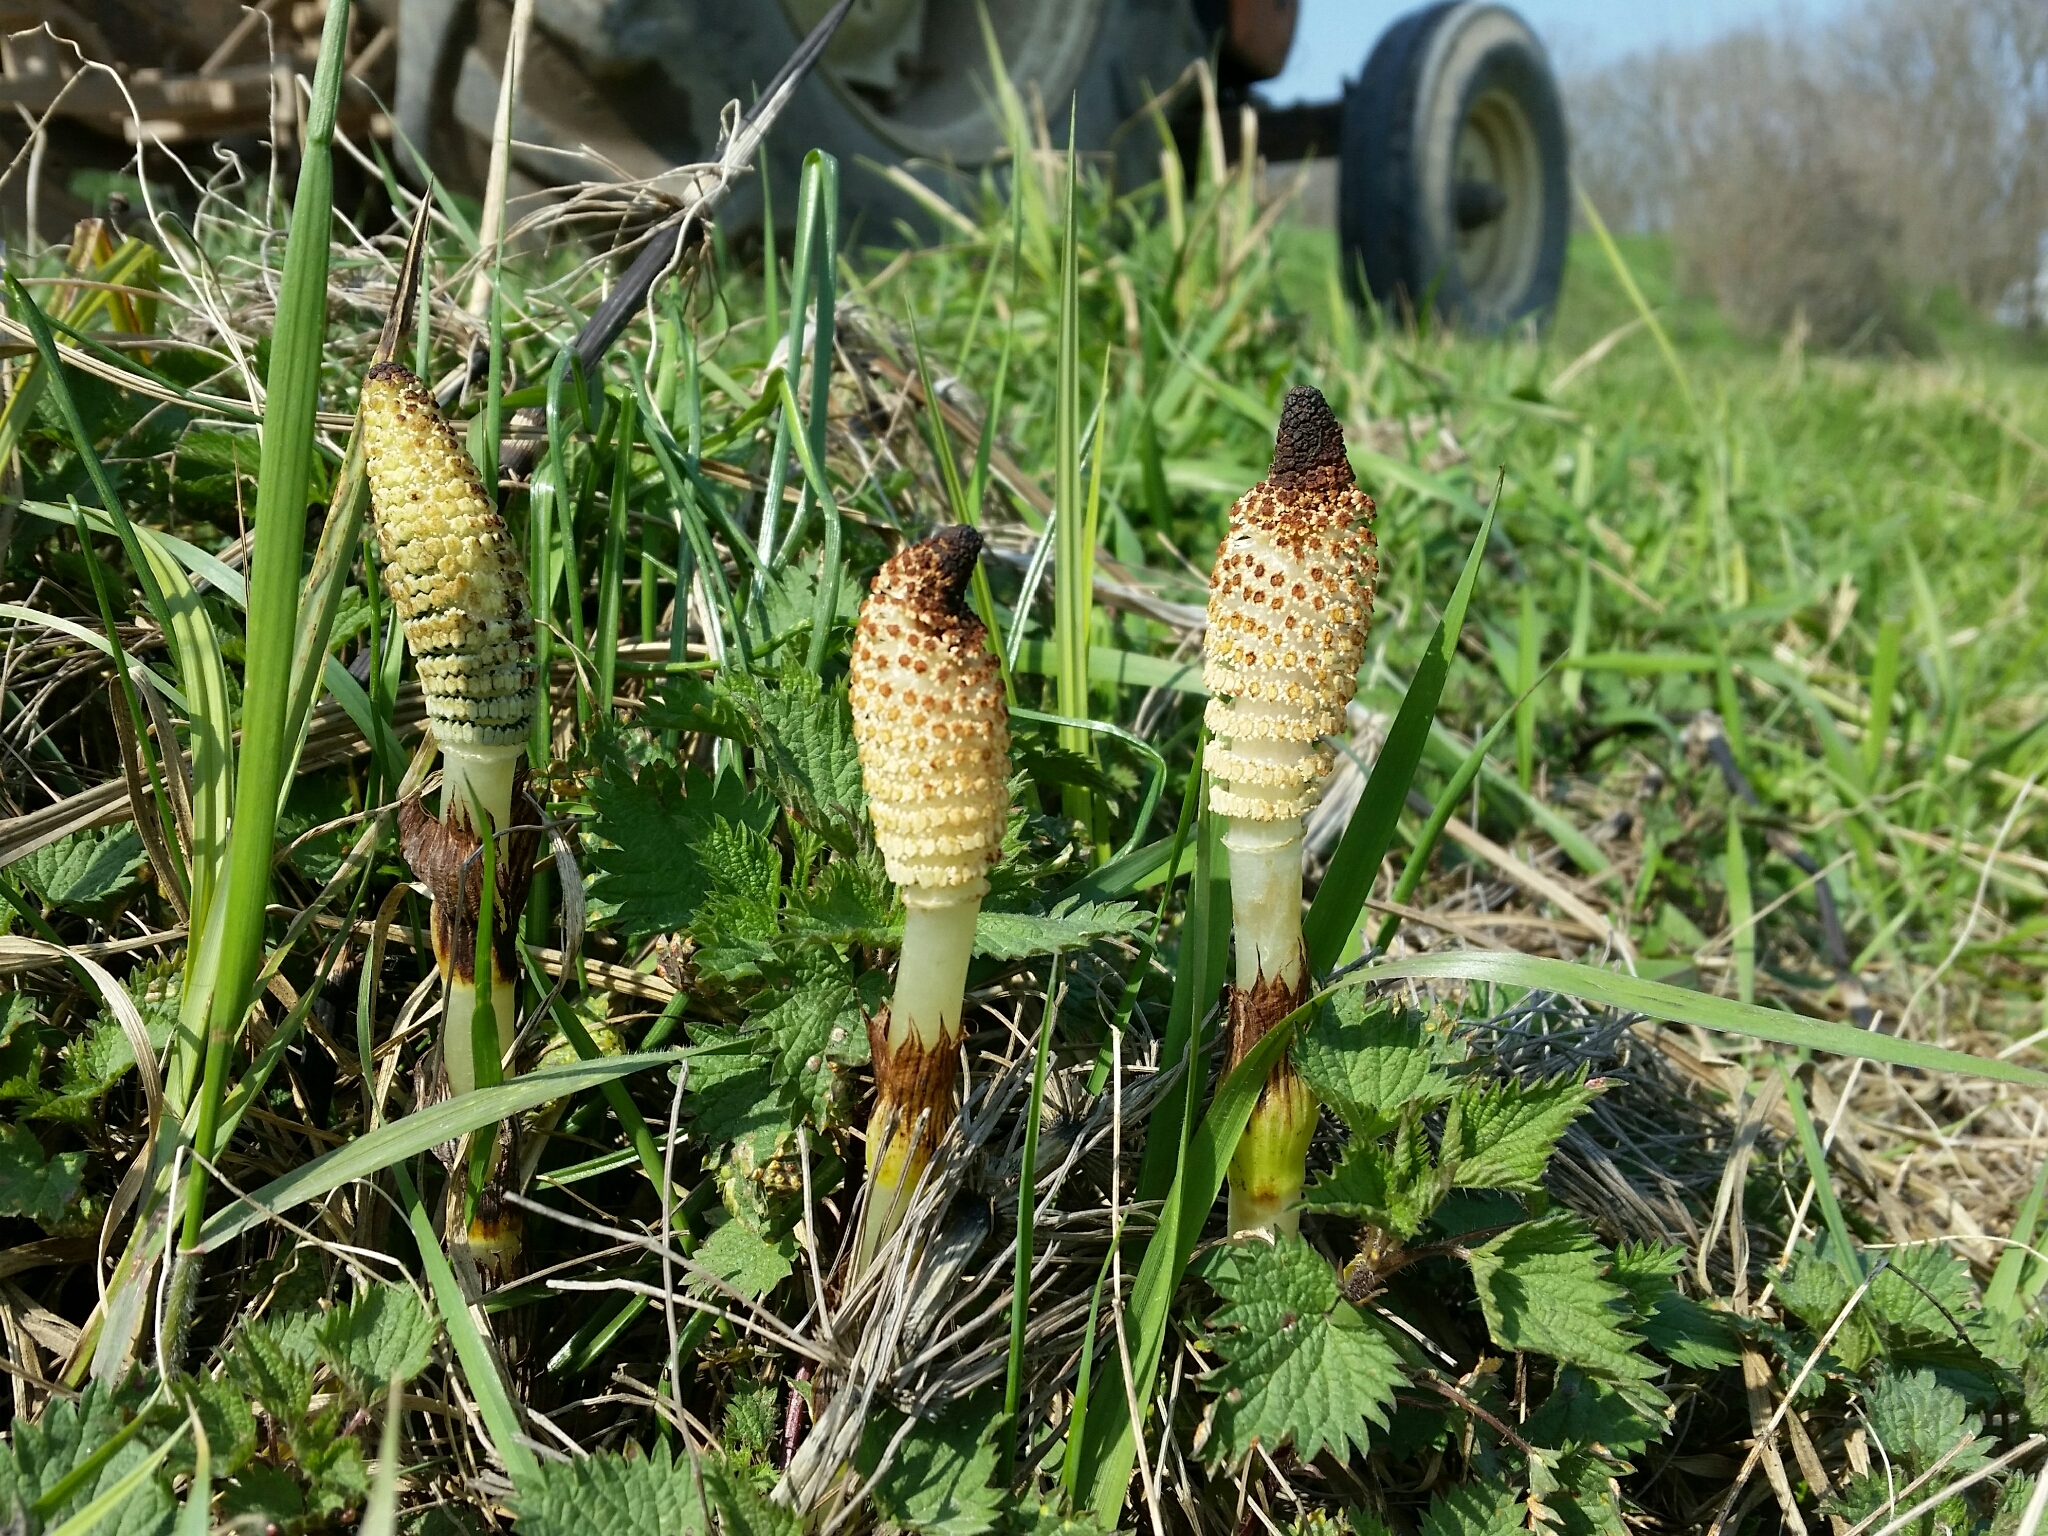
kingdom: Plantae
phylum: Tracheophyta
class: Polypodiopsida
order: Equisetales
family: Equisetaceae
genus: Equisetum
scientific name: Equisetum telmateia
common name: Great horsetail
